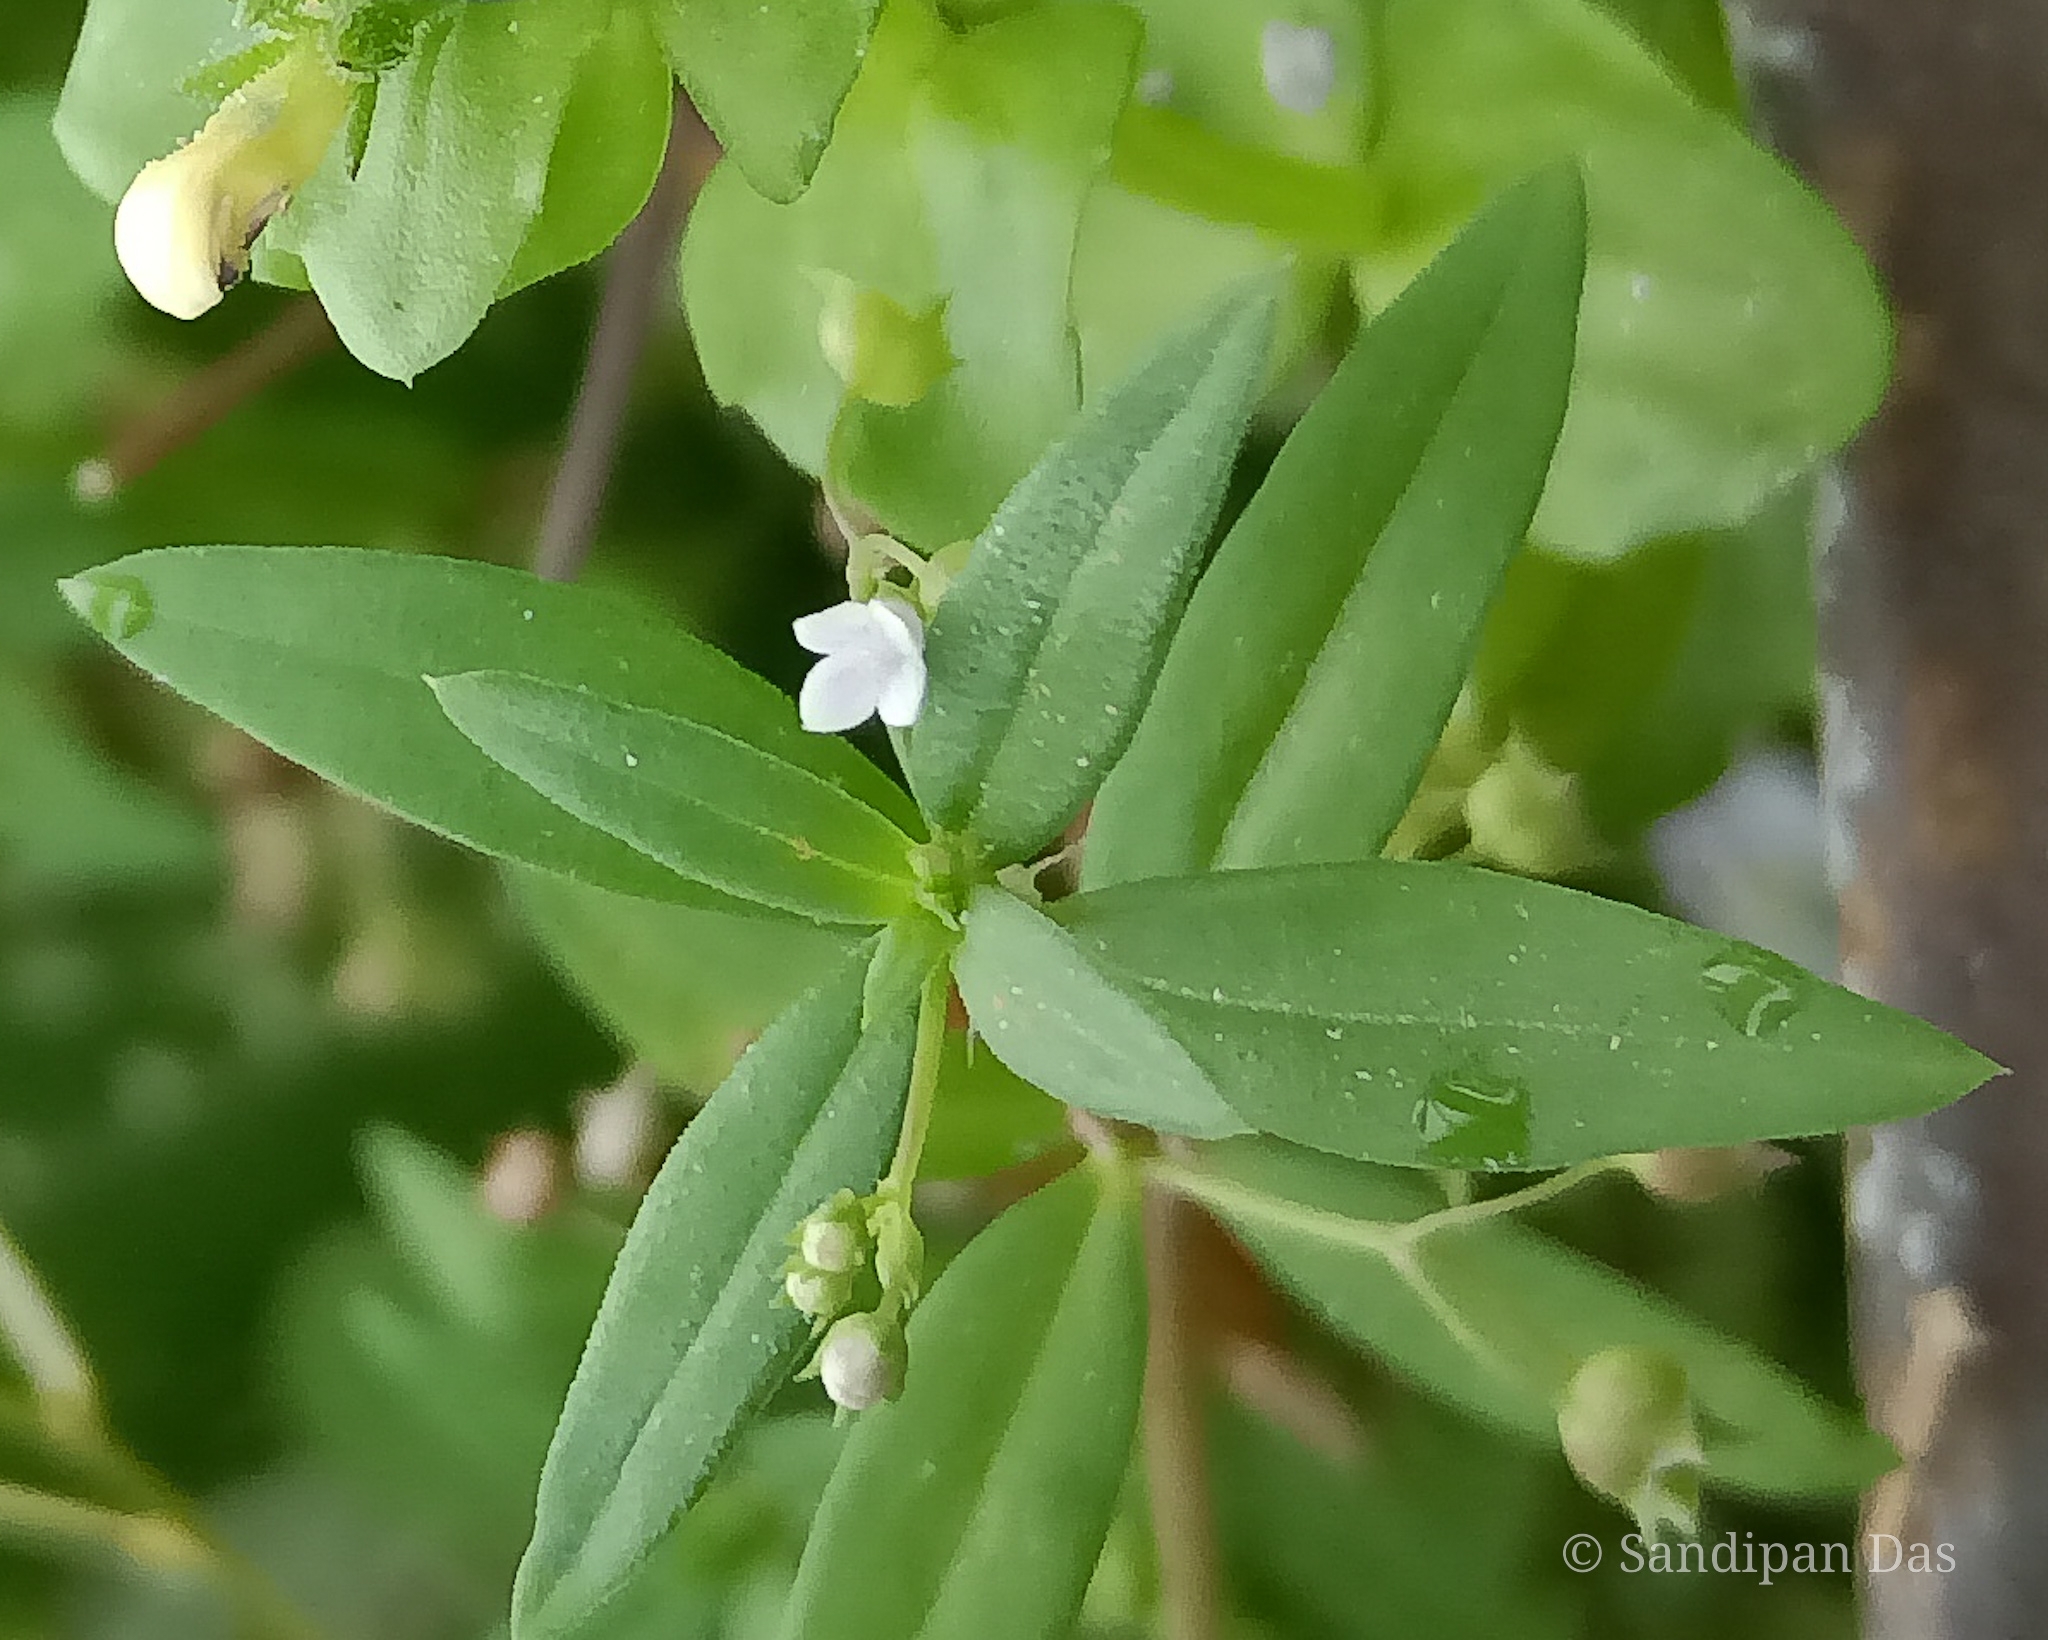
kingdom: Plantae
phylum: Tracheophyta
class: Magnoliopsida
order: Gentianales
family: Rubiaceae
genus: Oldenlandia
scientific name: Oldenlandia corymbosa
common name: Flat-top mille graines
